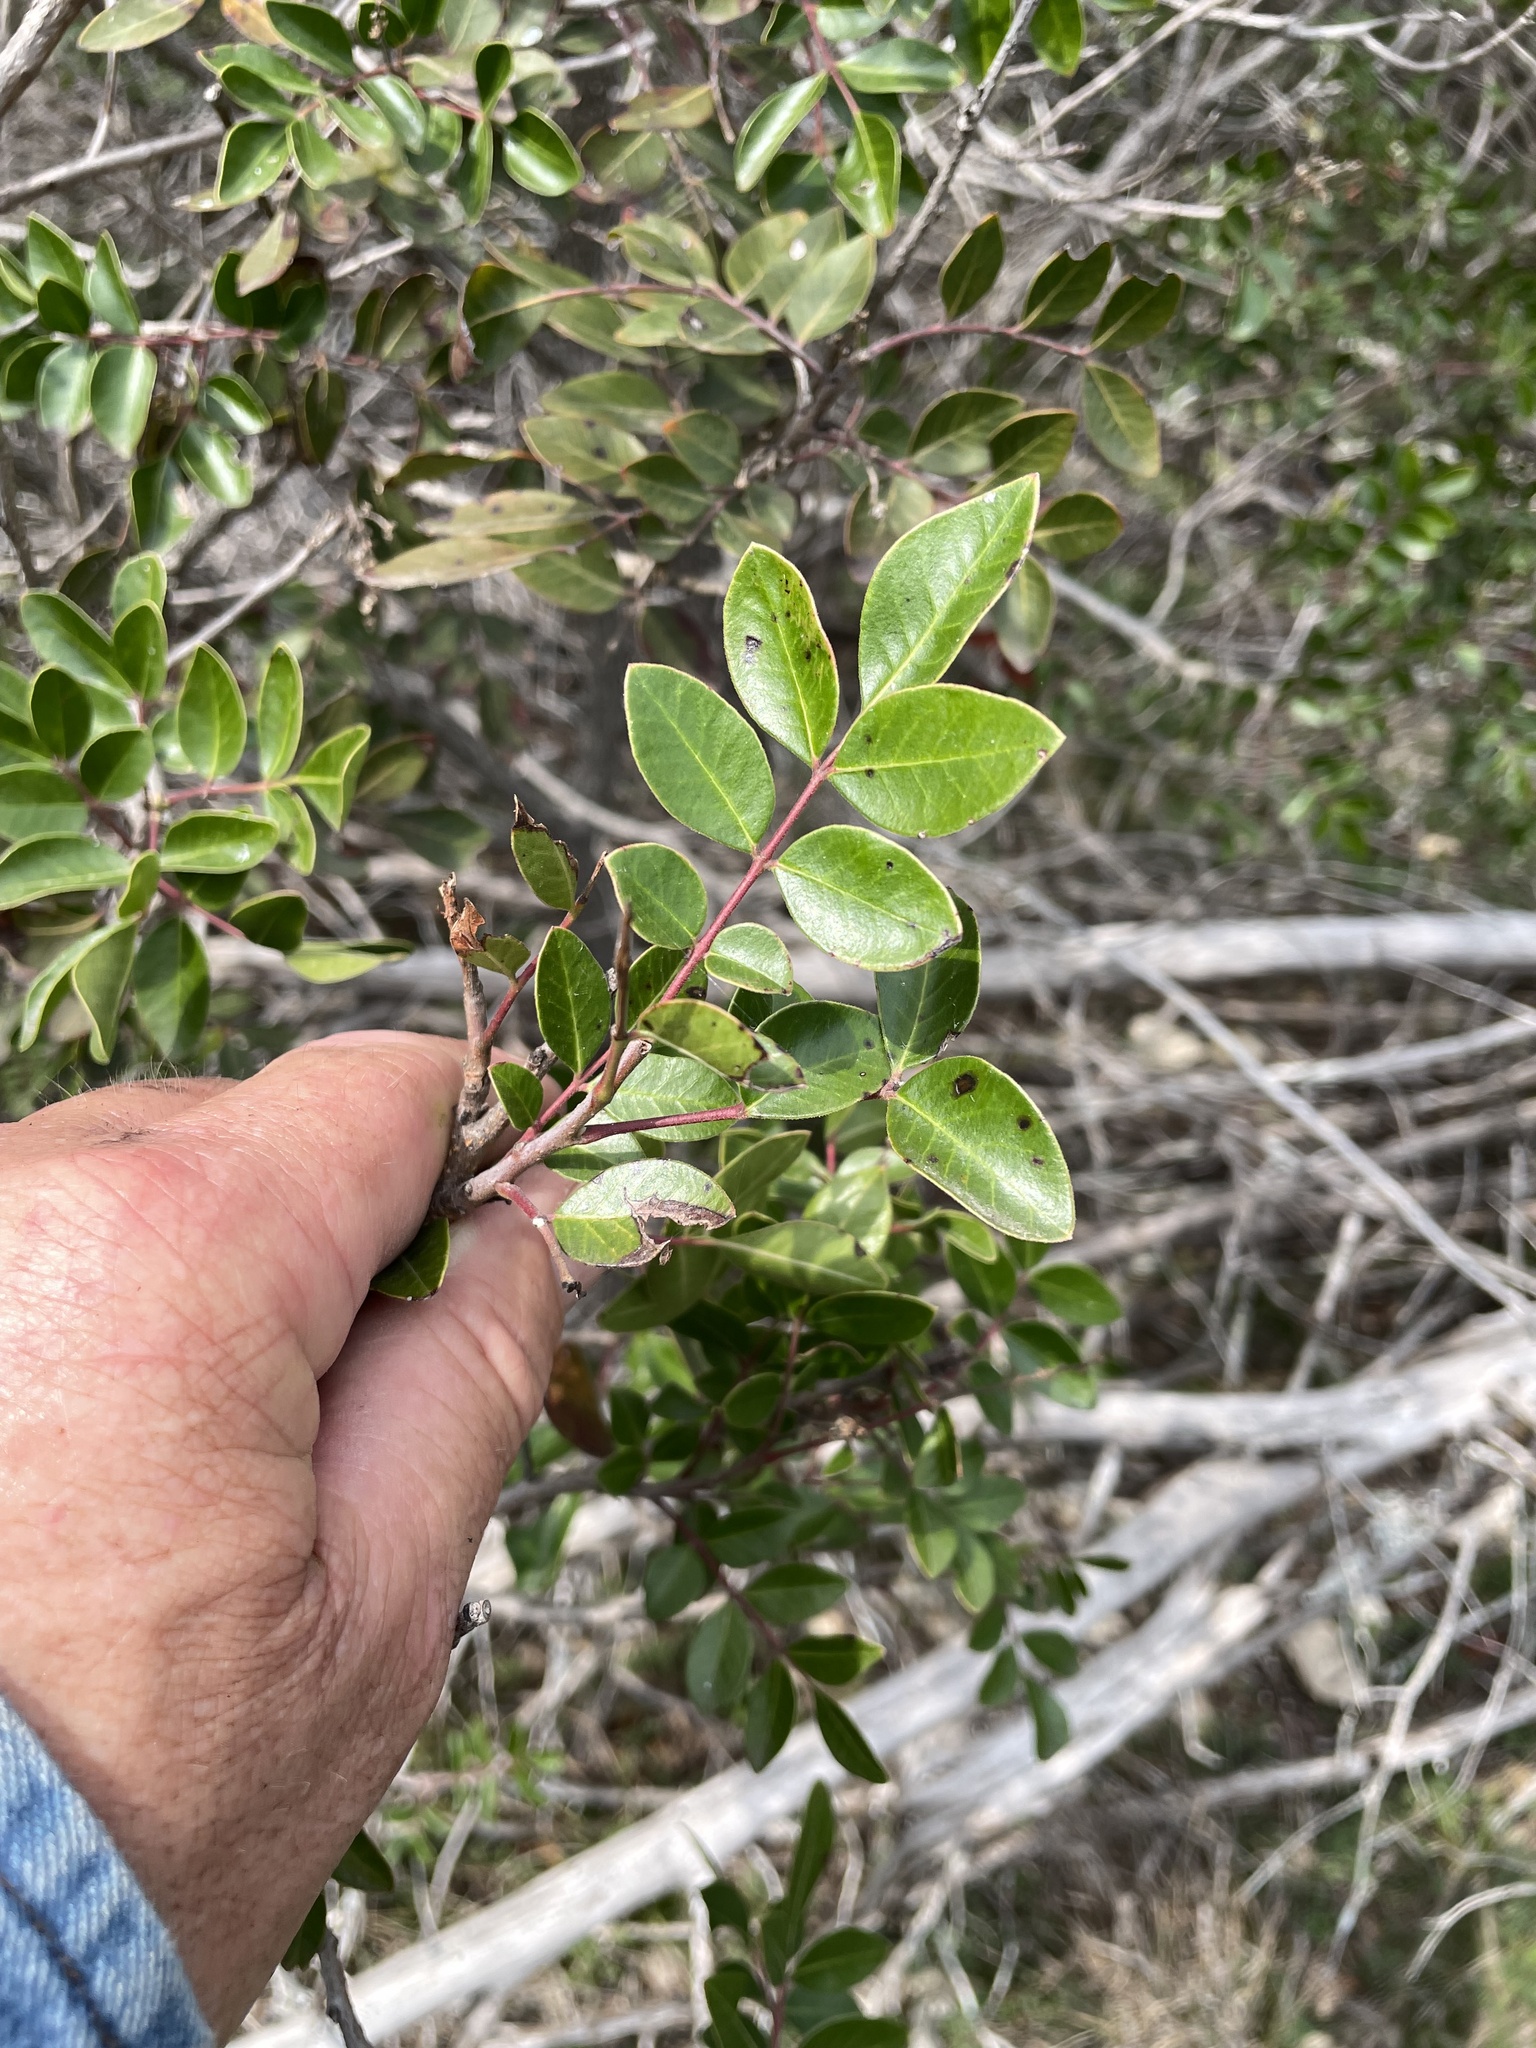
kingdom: Plantae
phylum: Tracheophyta
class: Magnoliopsida
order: Sapindales
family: Anacardiaceae
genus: Rhus
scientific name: Rhus virens
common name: Evergreen sumac
